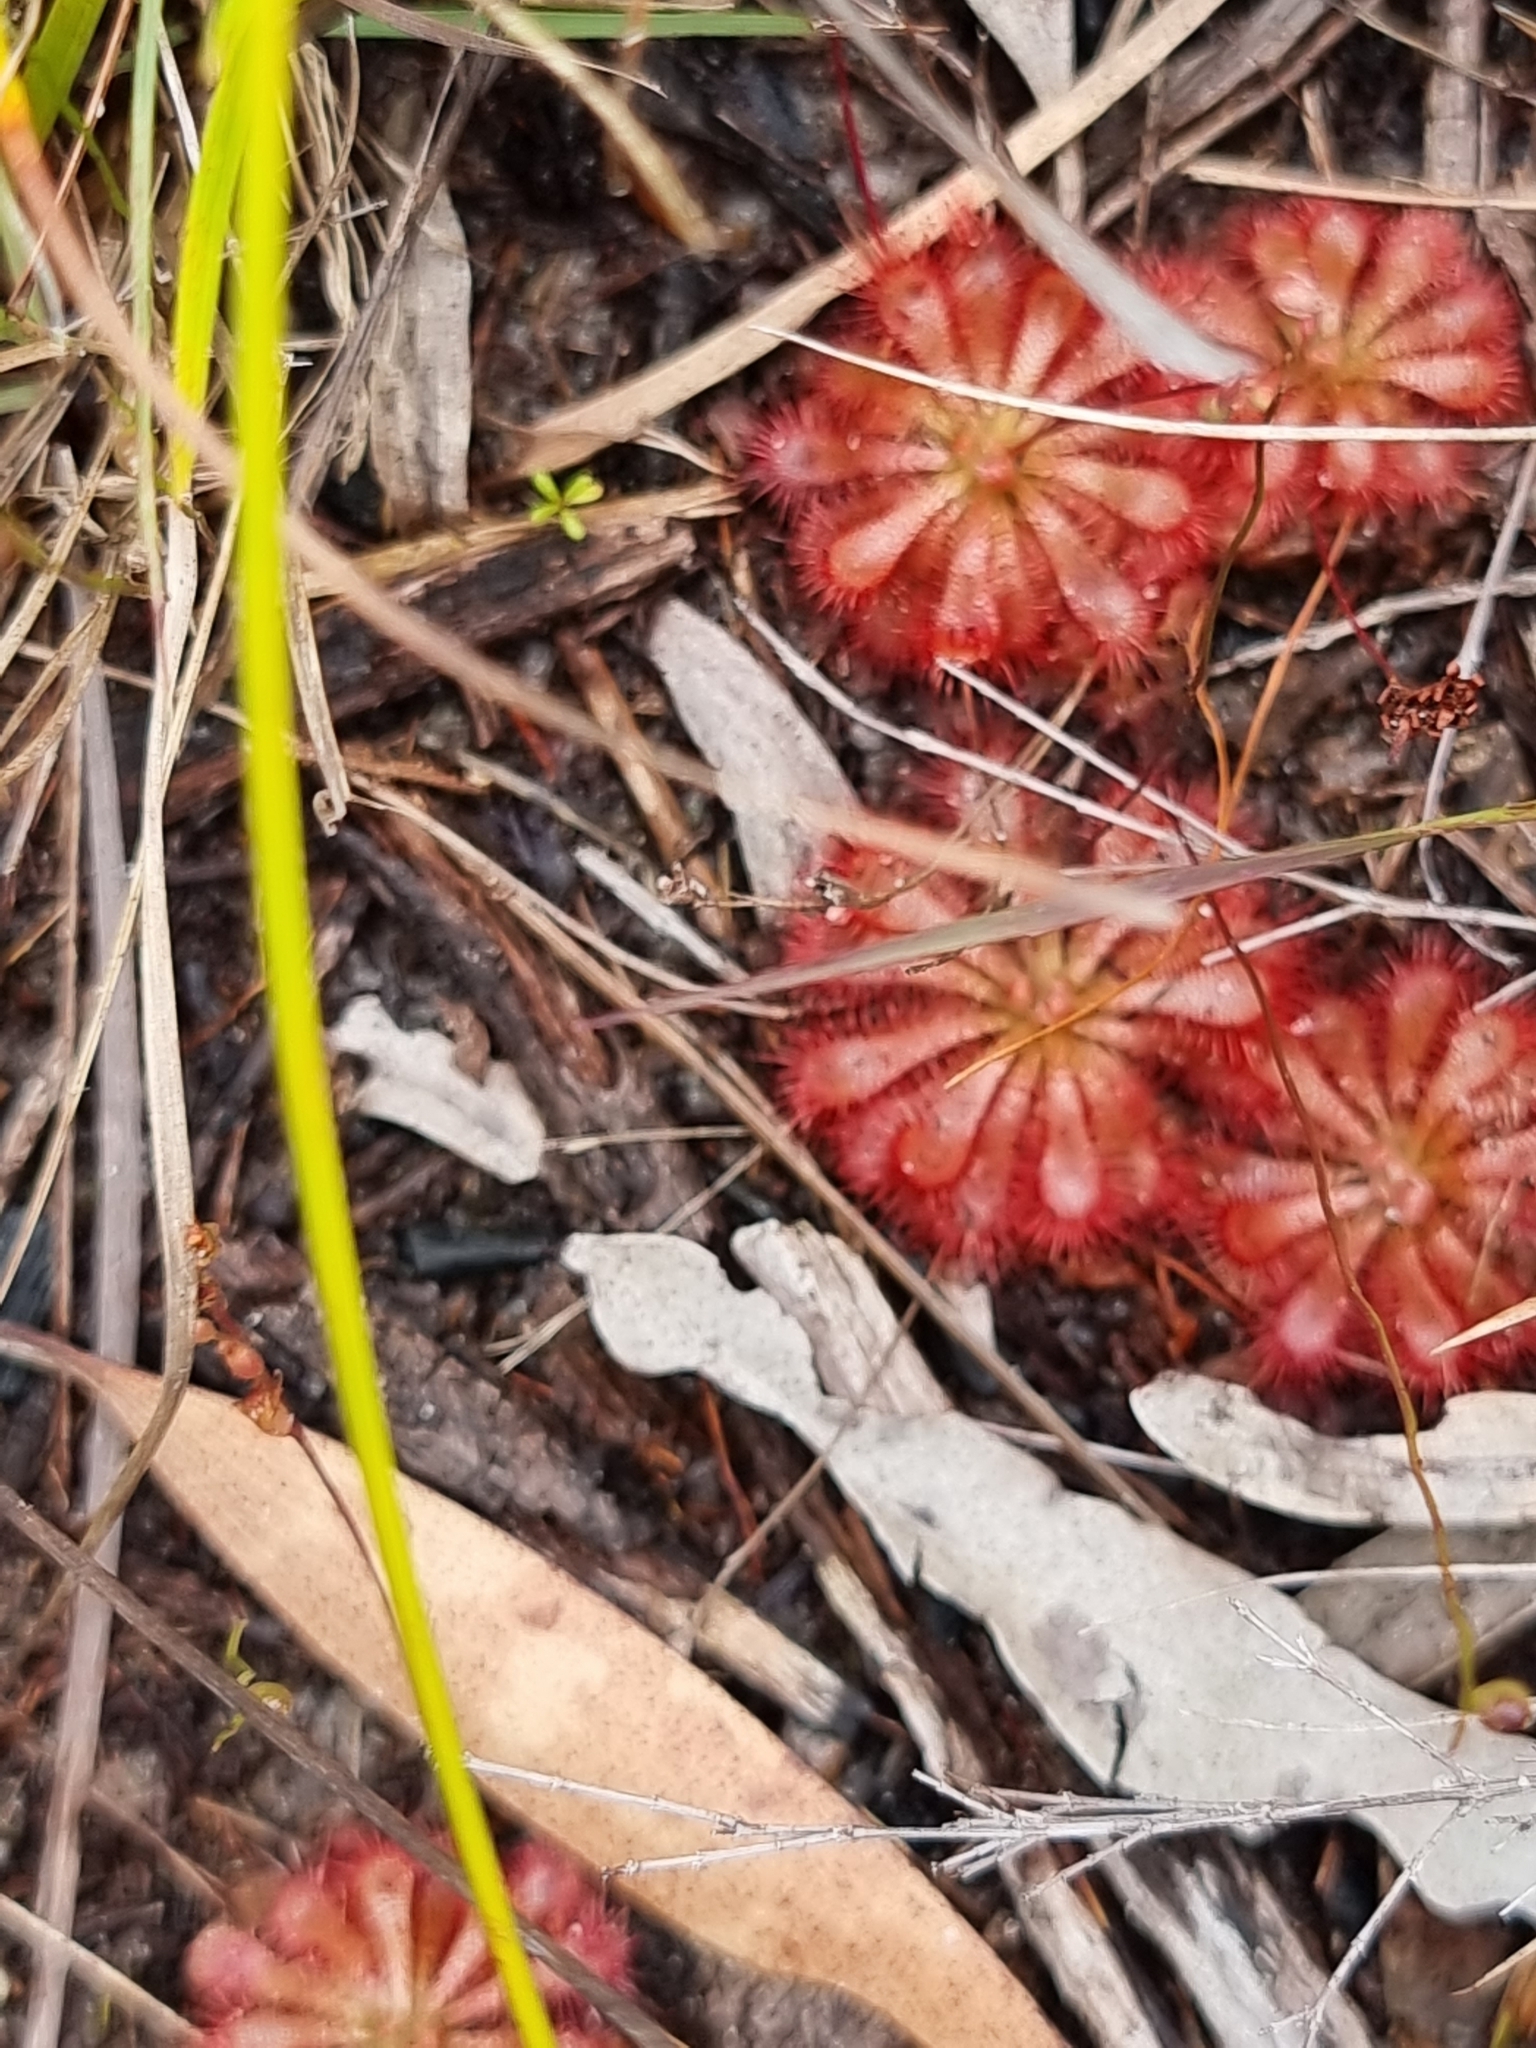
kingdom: Plantae
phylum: Tracheophyta
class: Magnoliopsida
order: Caryophyllales
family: Droseraceae
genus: Drosera
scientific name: Drosera spatulata
